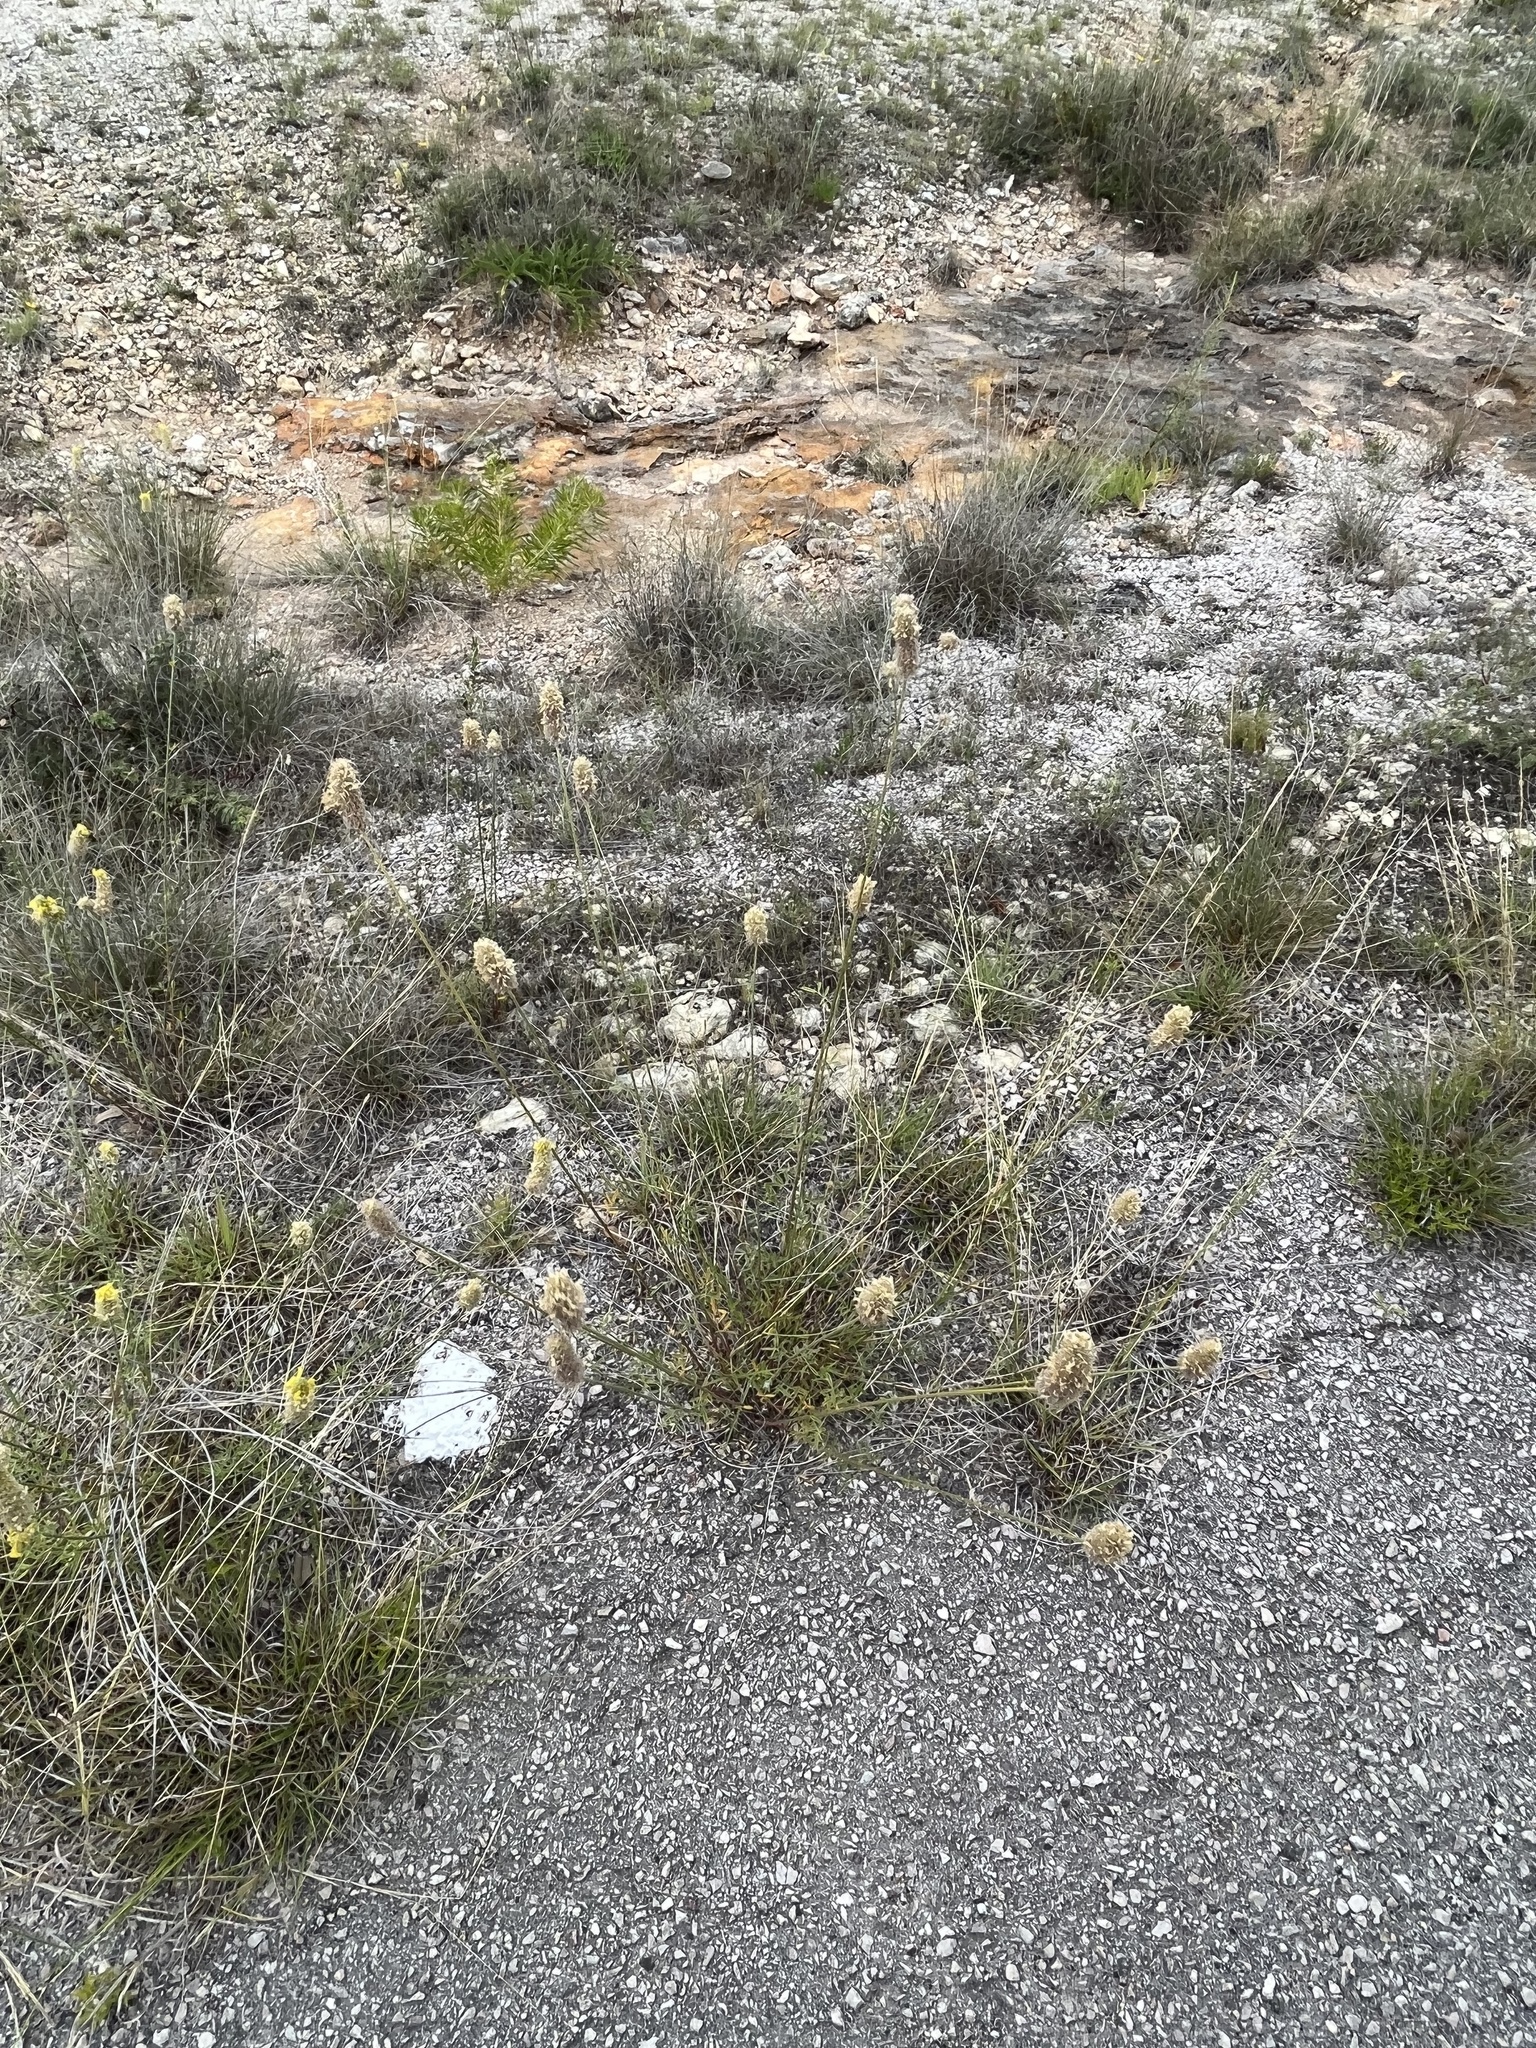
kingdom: Plantae
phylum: Tracheophyta
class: Magnoliopsida
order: Fabales
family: Fabaceae
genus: Dalea
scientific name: Dalea aurea
